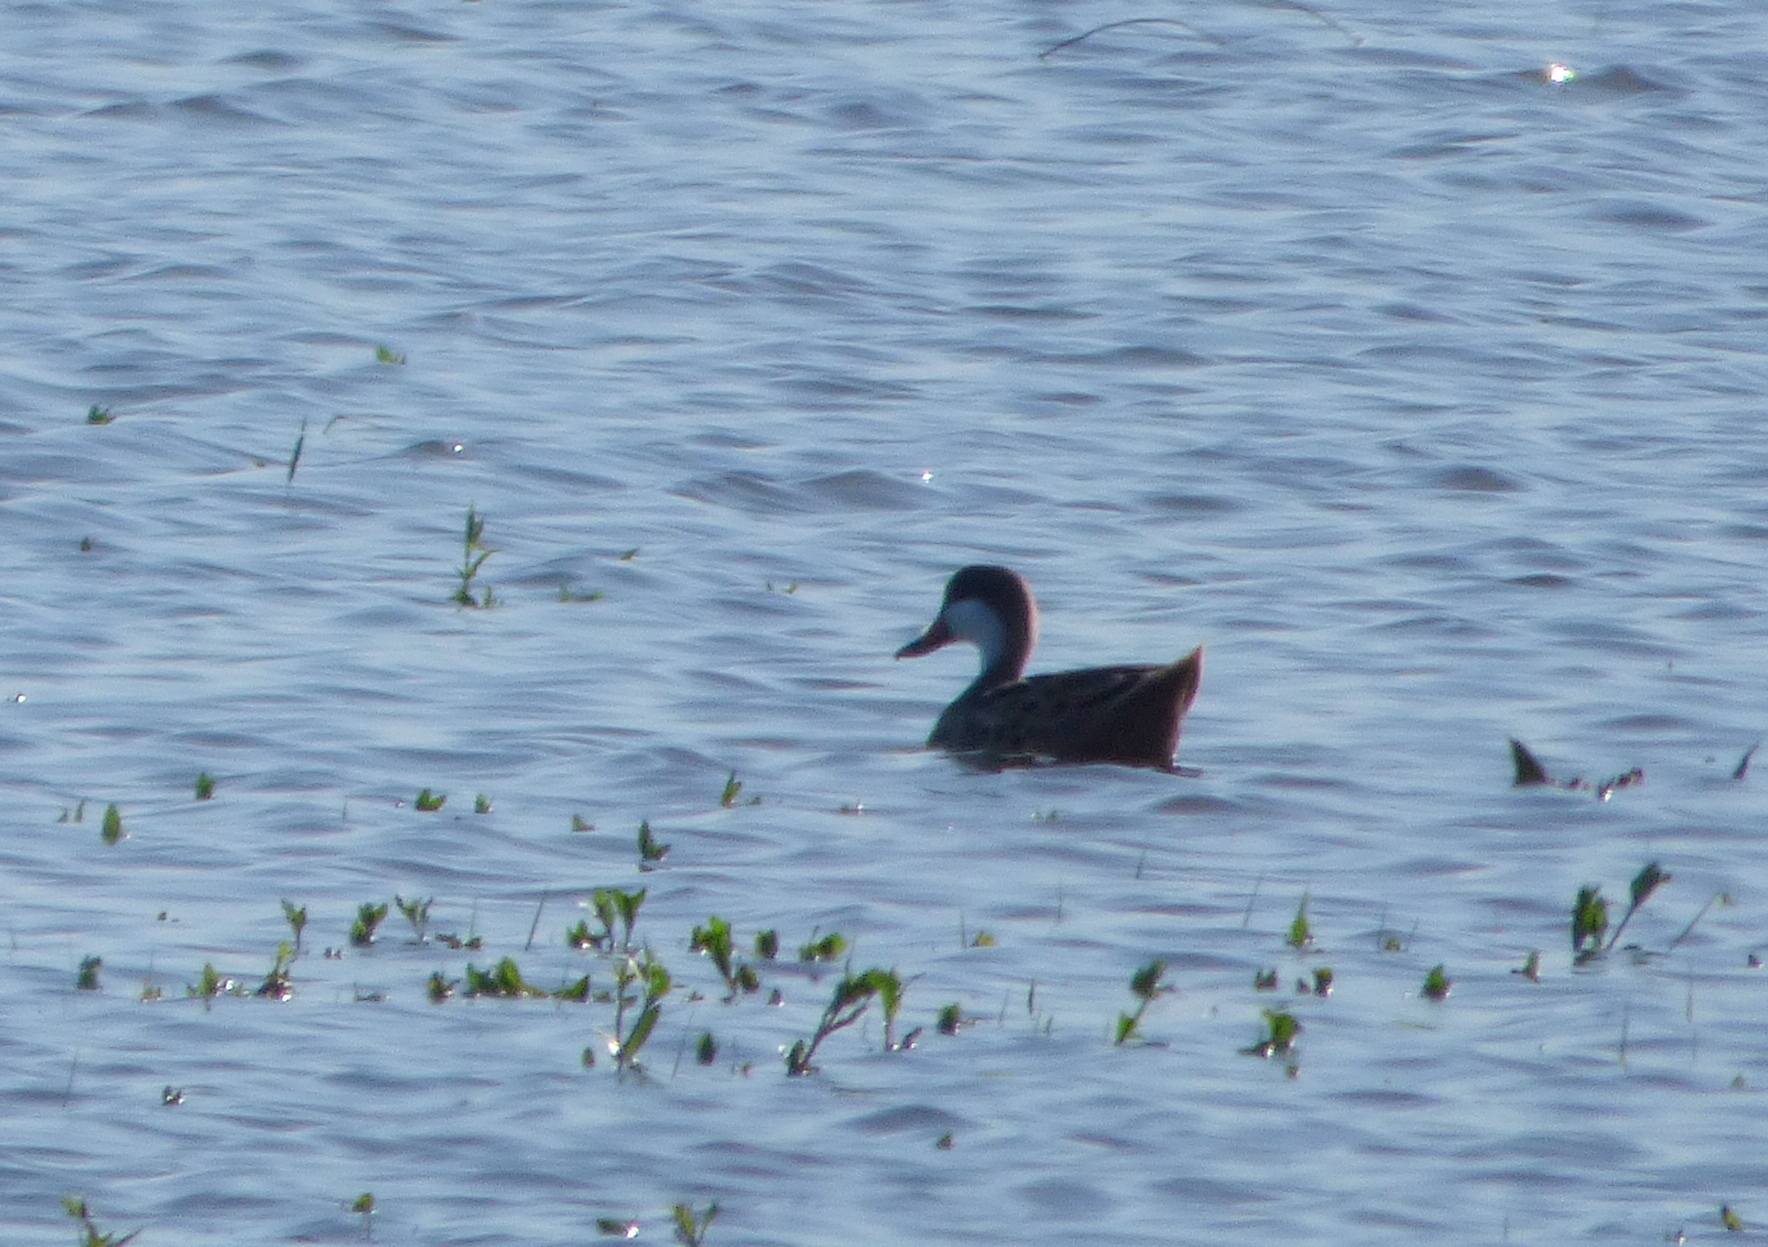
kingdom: Animalia
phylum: Chordata
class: Aves
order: Anseriformes
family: Anatidae
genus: Anas
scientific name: Anas bahamensis
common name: White-cheeked pintail
